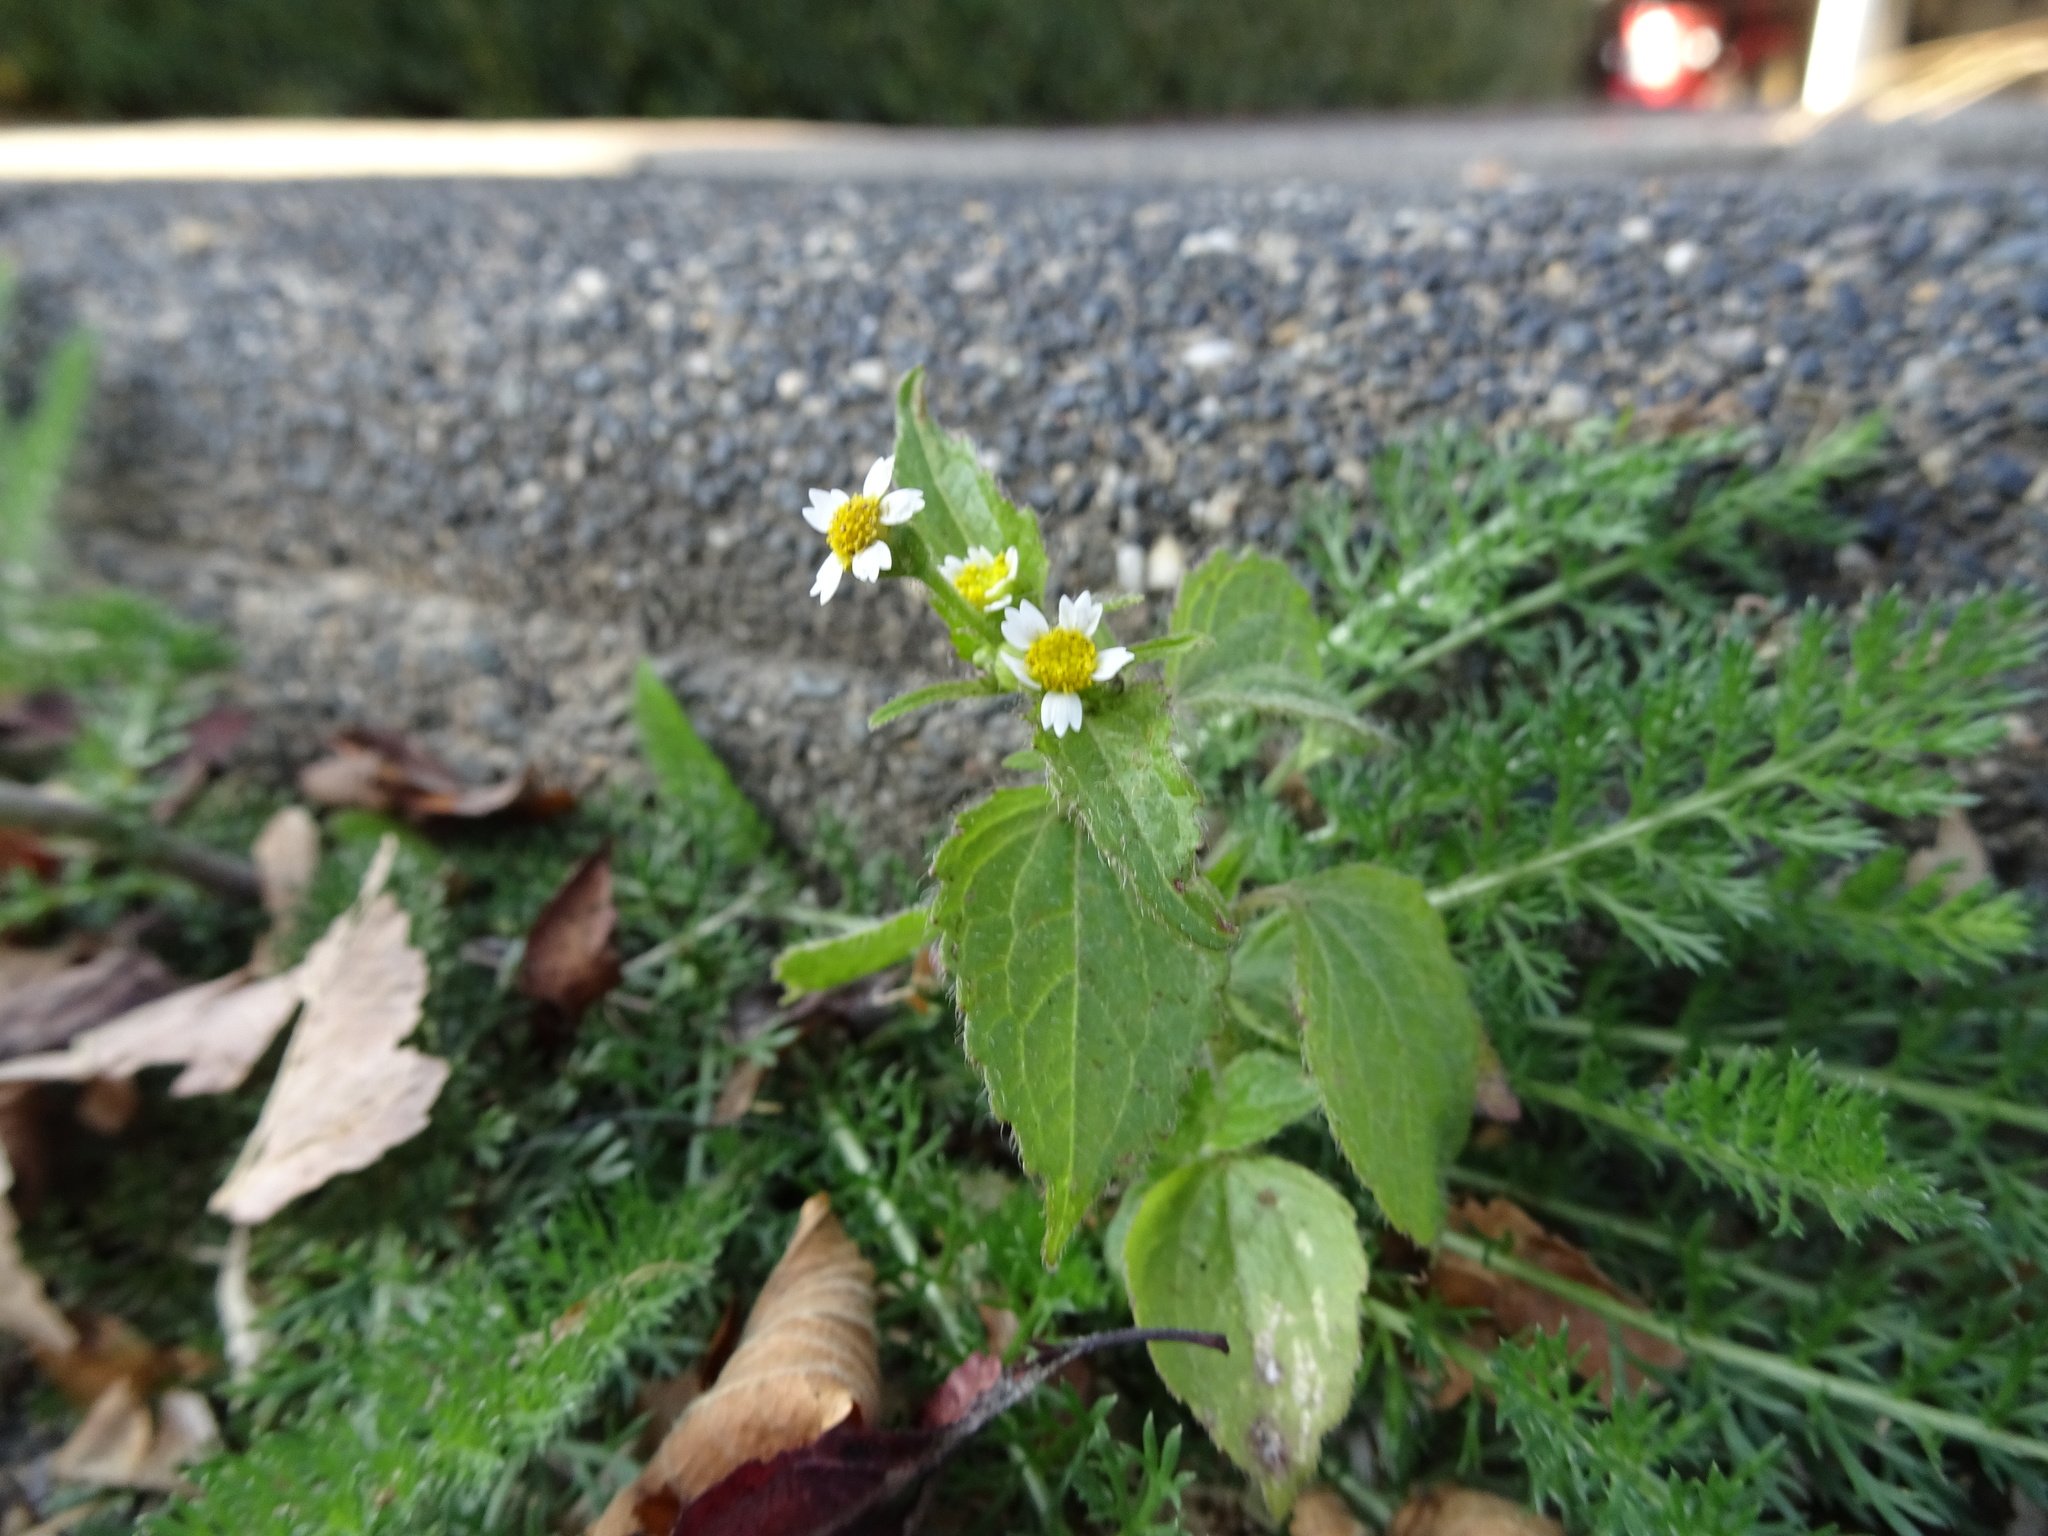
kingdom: Plantae
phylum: Tracheophyta
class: Magnoliopsida
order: Asterales
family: Asteraceae
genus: Galinsoga
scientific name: Galinsoga quadriradiata
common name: Shaggy soldier
